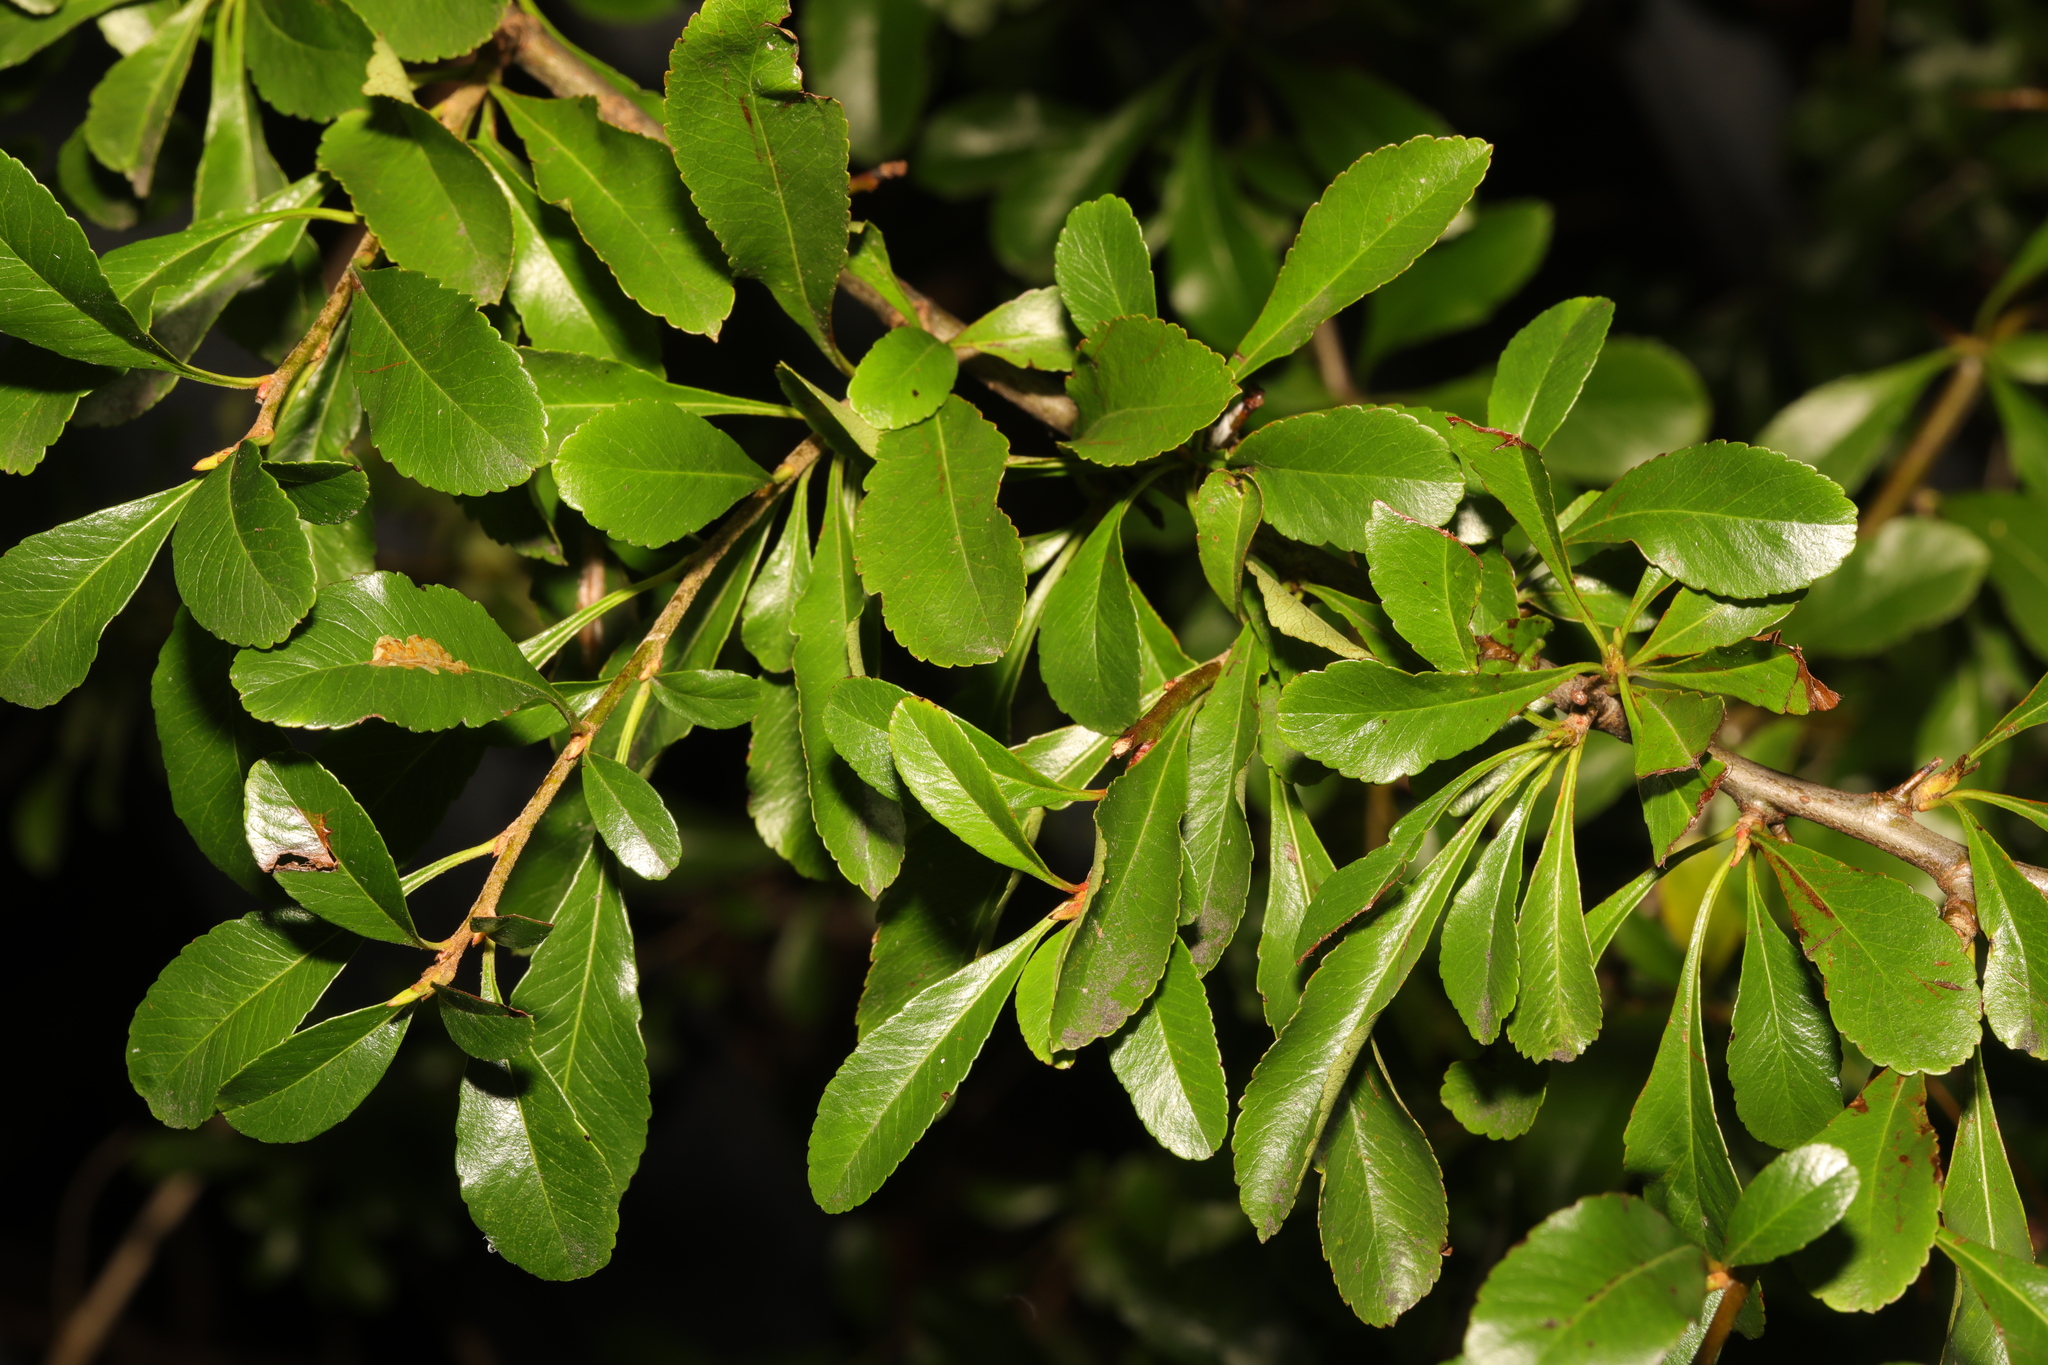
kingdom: Plantae
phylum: Tracheophyta
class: Magnoliopsida
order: Rosales
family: Rosaceae
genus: Pyracantha
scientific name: Pyracantha coccinea
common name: Firethorn
